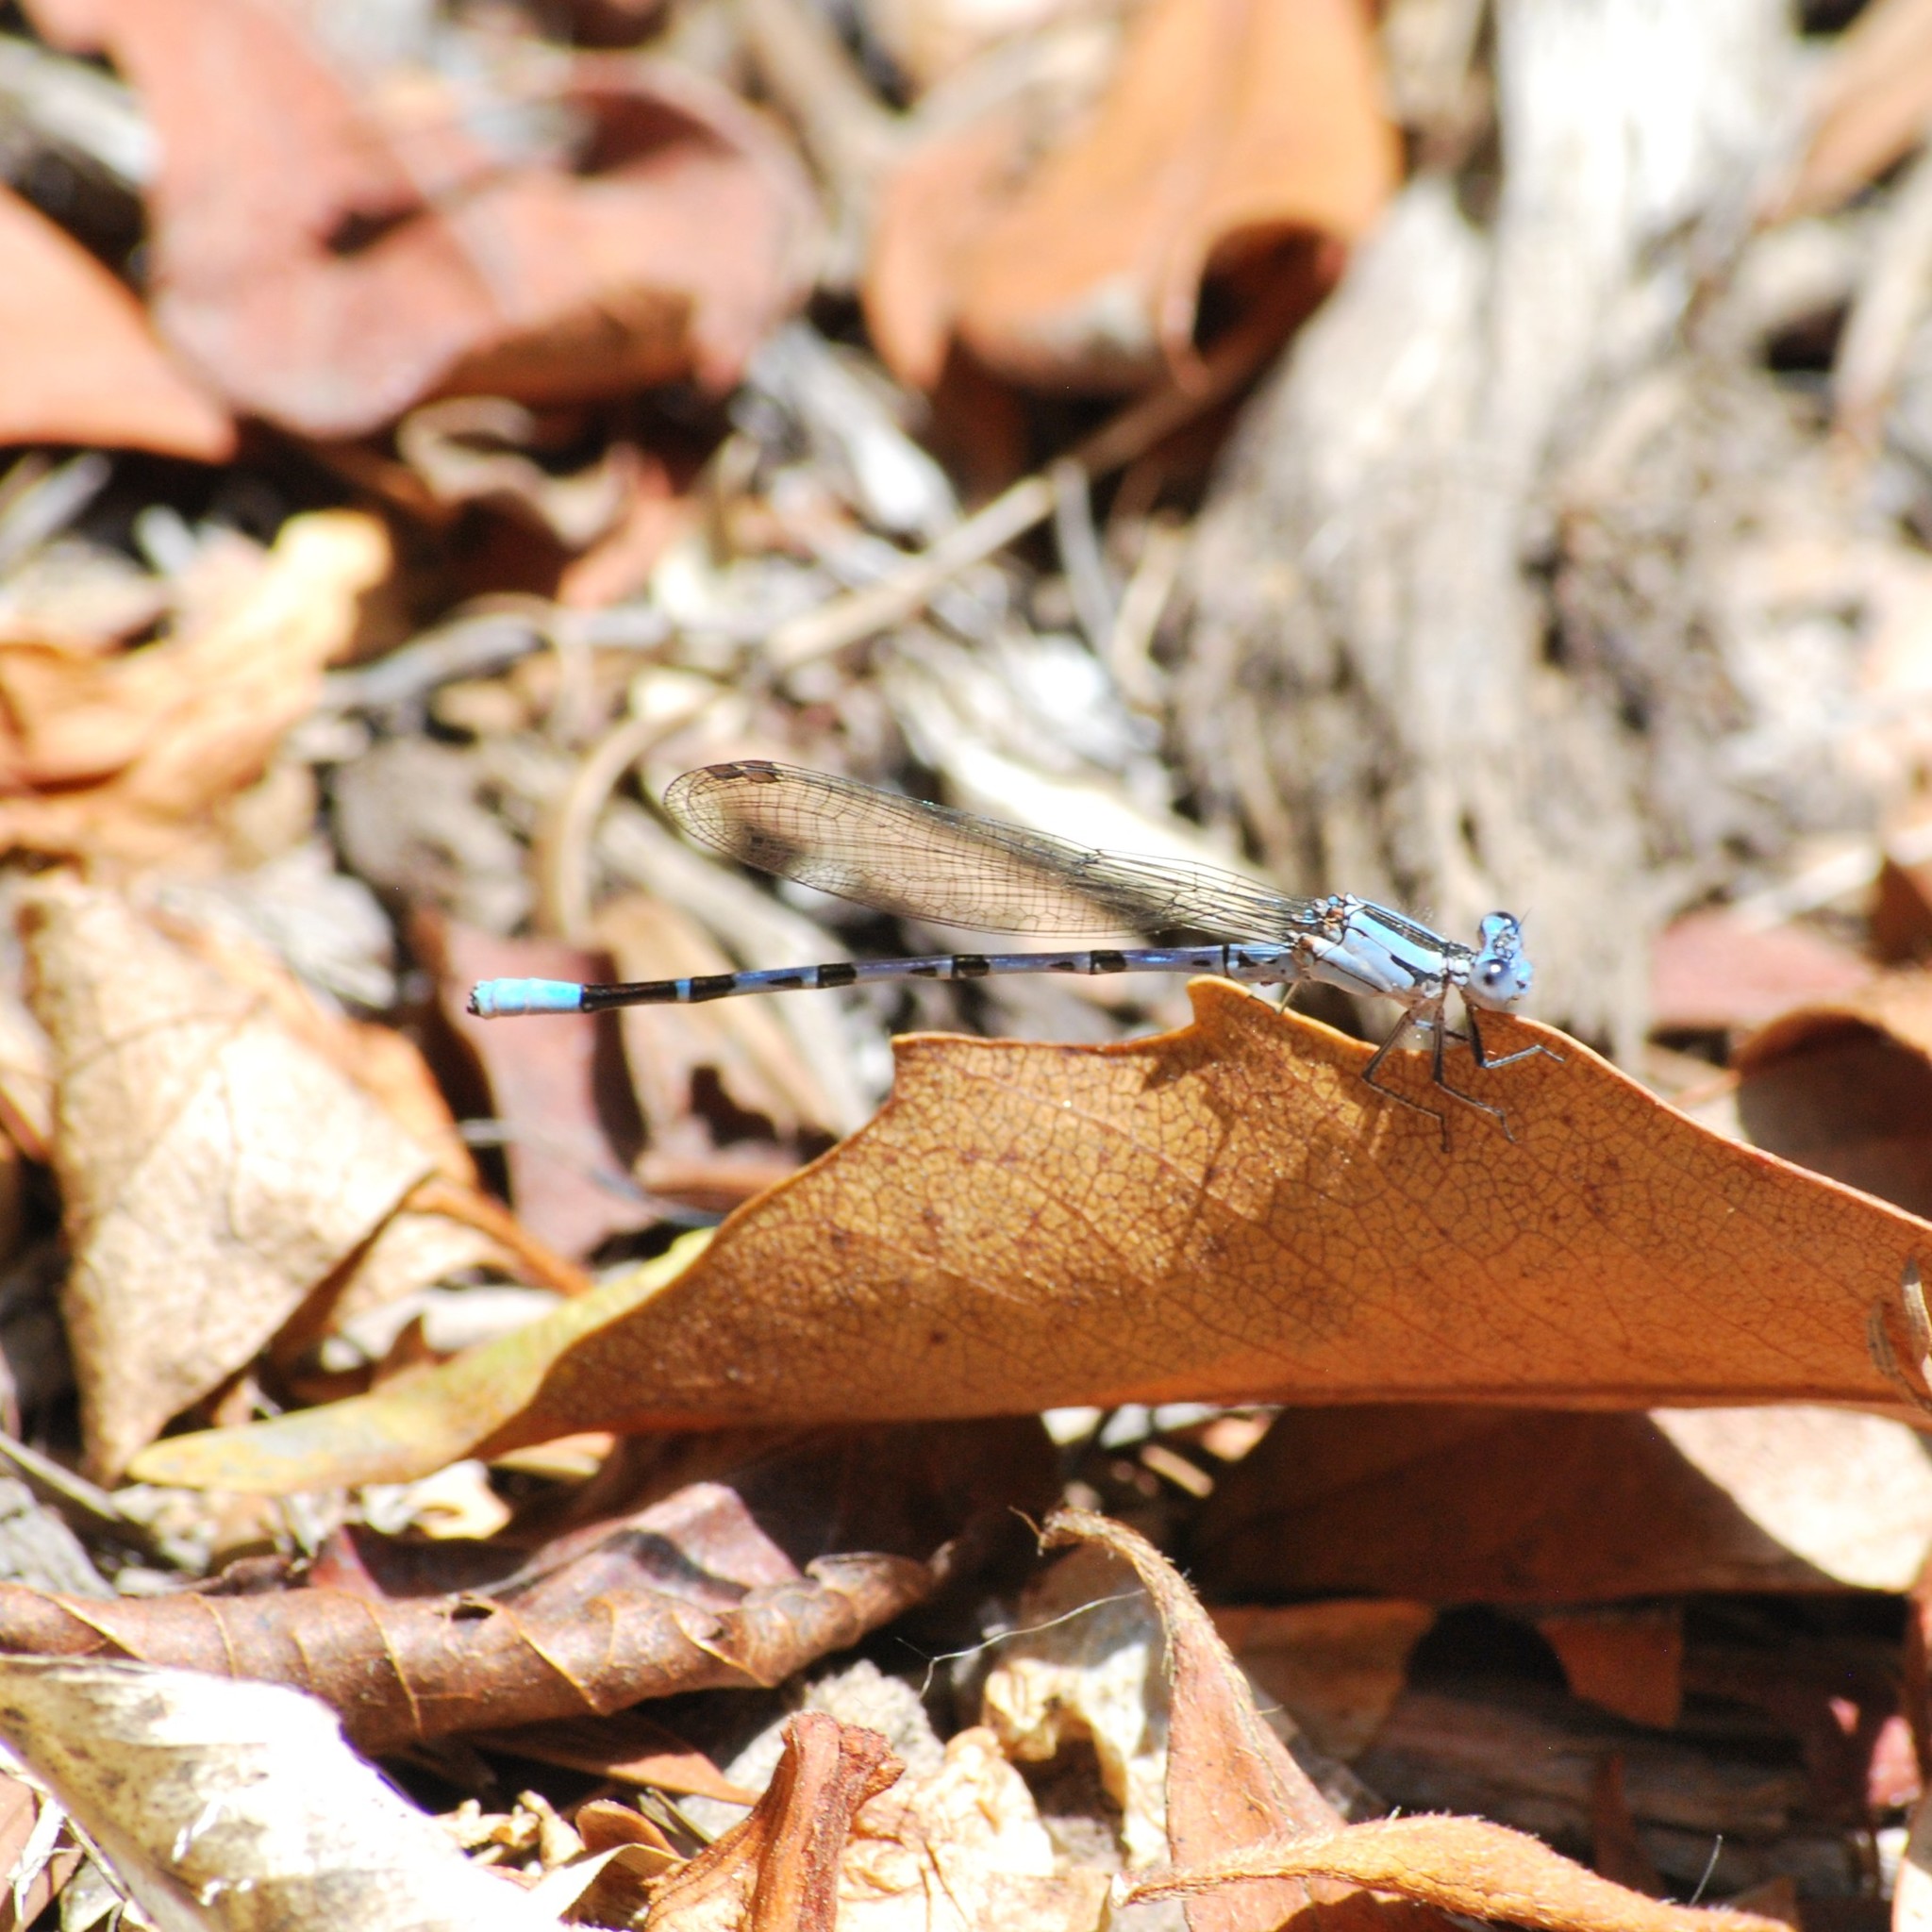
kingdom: Animalia
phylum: Arthropoda
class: Insecta
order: Odonata
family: Coenagrionidae
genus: Argia
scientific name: Argia vivida
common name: Vivid dancer
